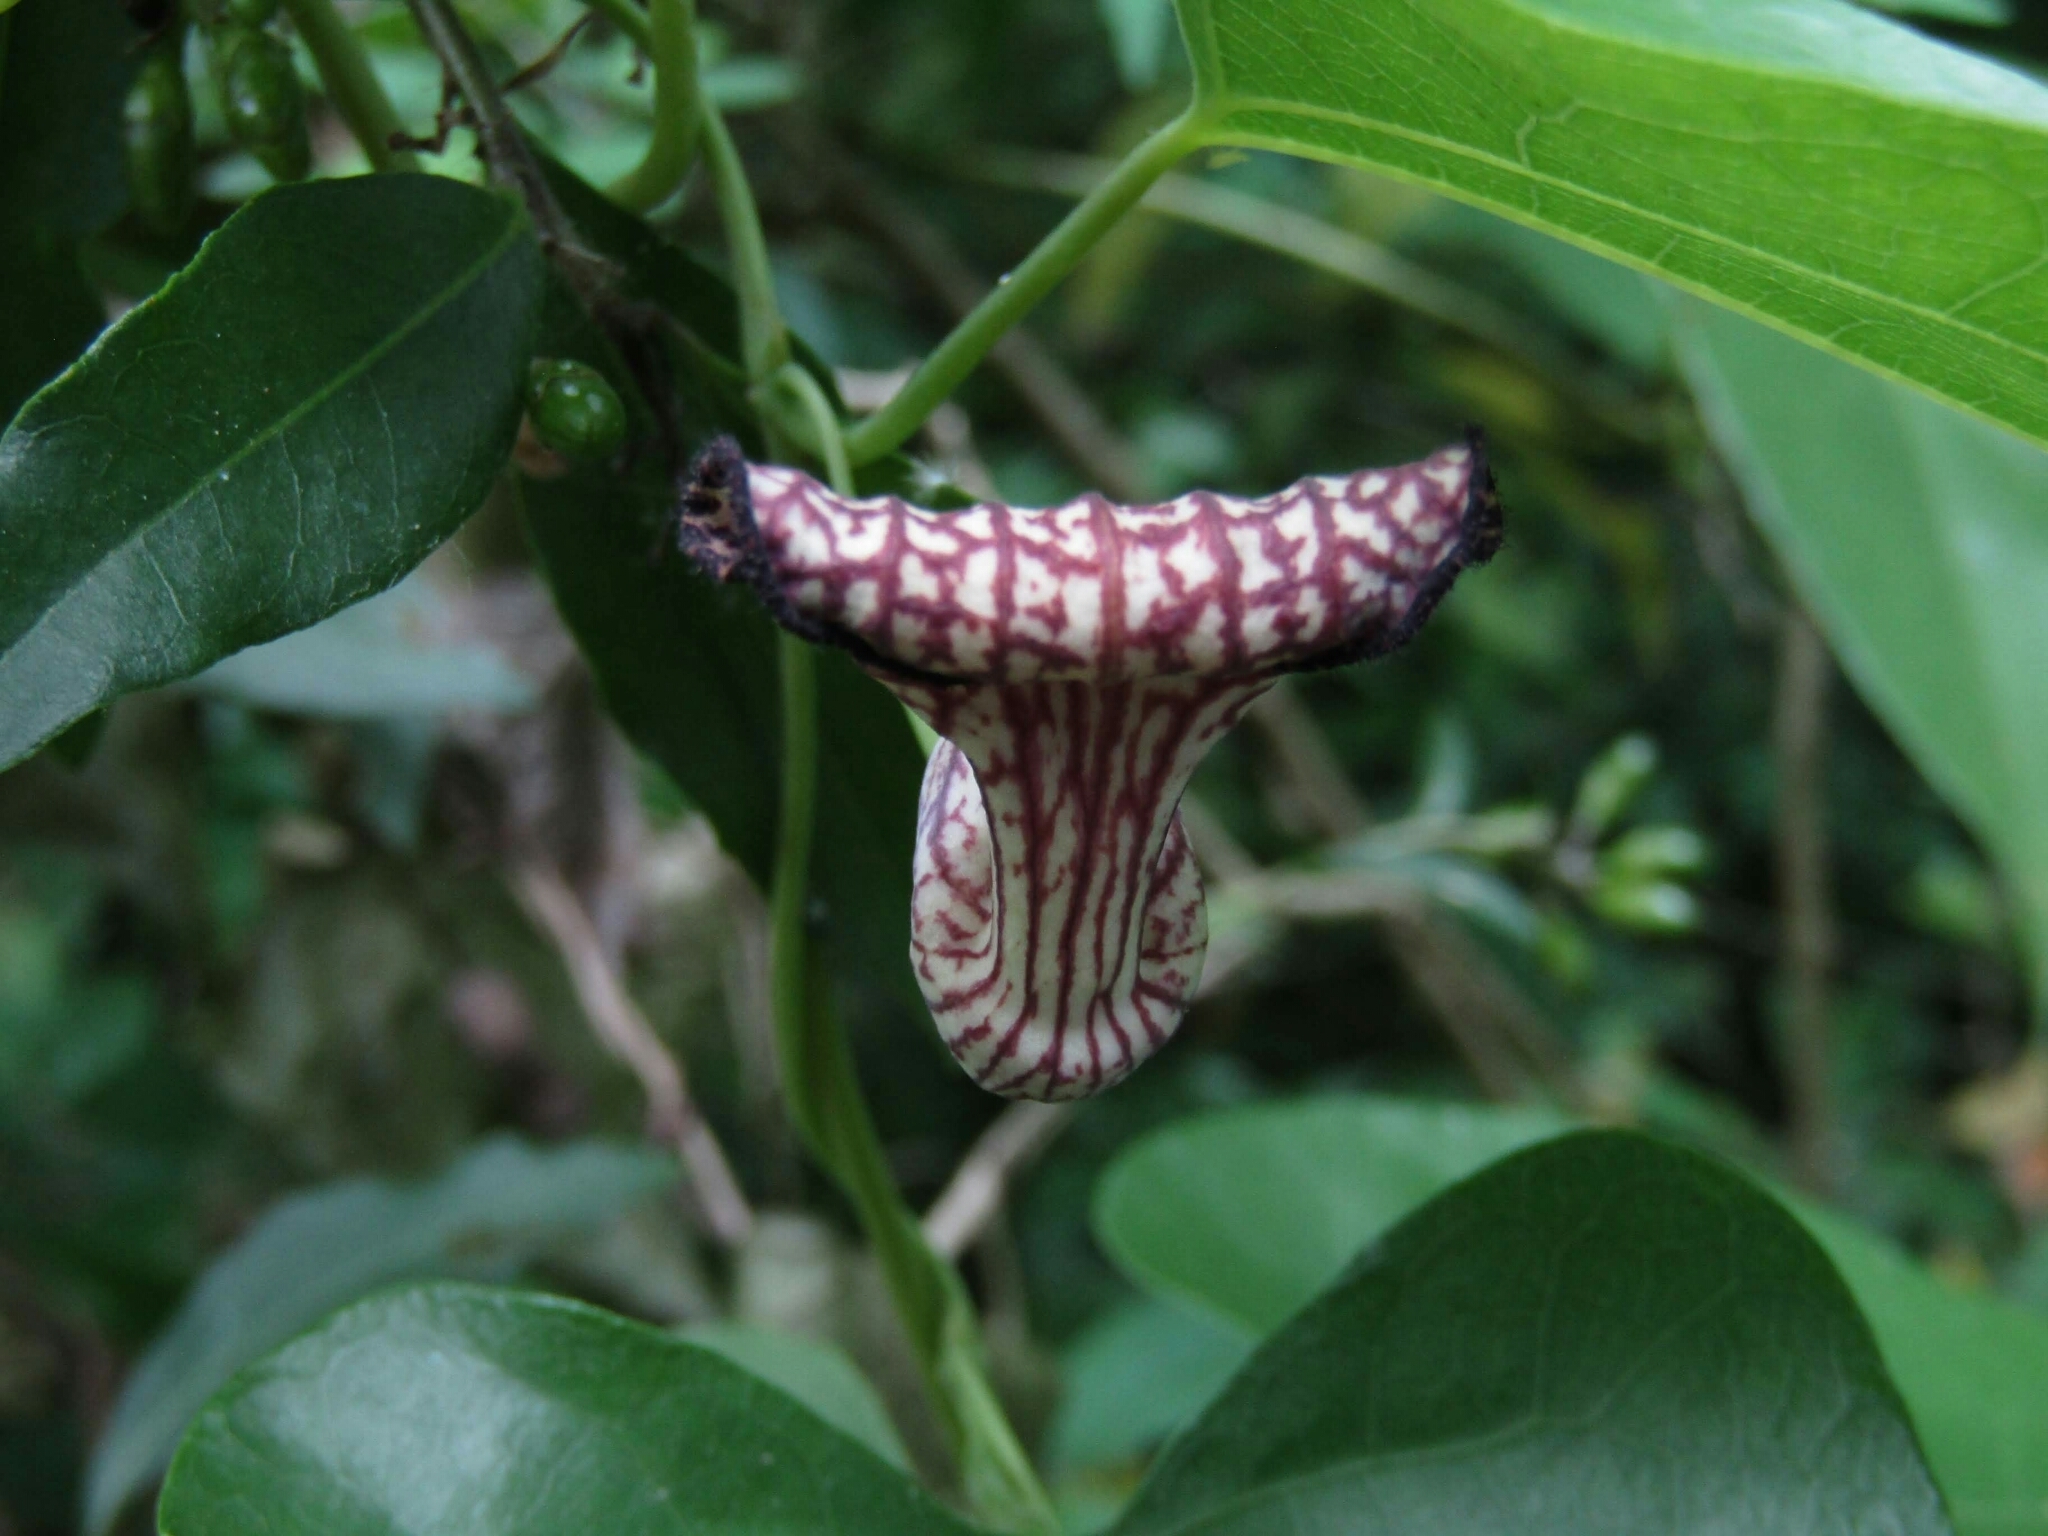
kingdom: Plantae
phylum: Tracheophyta
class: Magnoliopsida
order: Piperales
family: Aristolochiaceae
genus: Aristolochia
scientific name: Aristolochia triangularis
